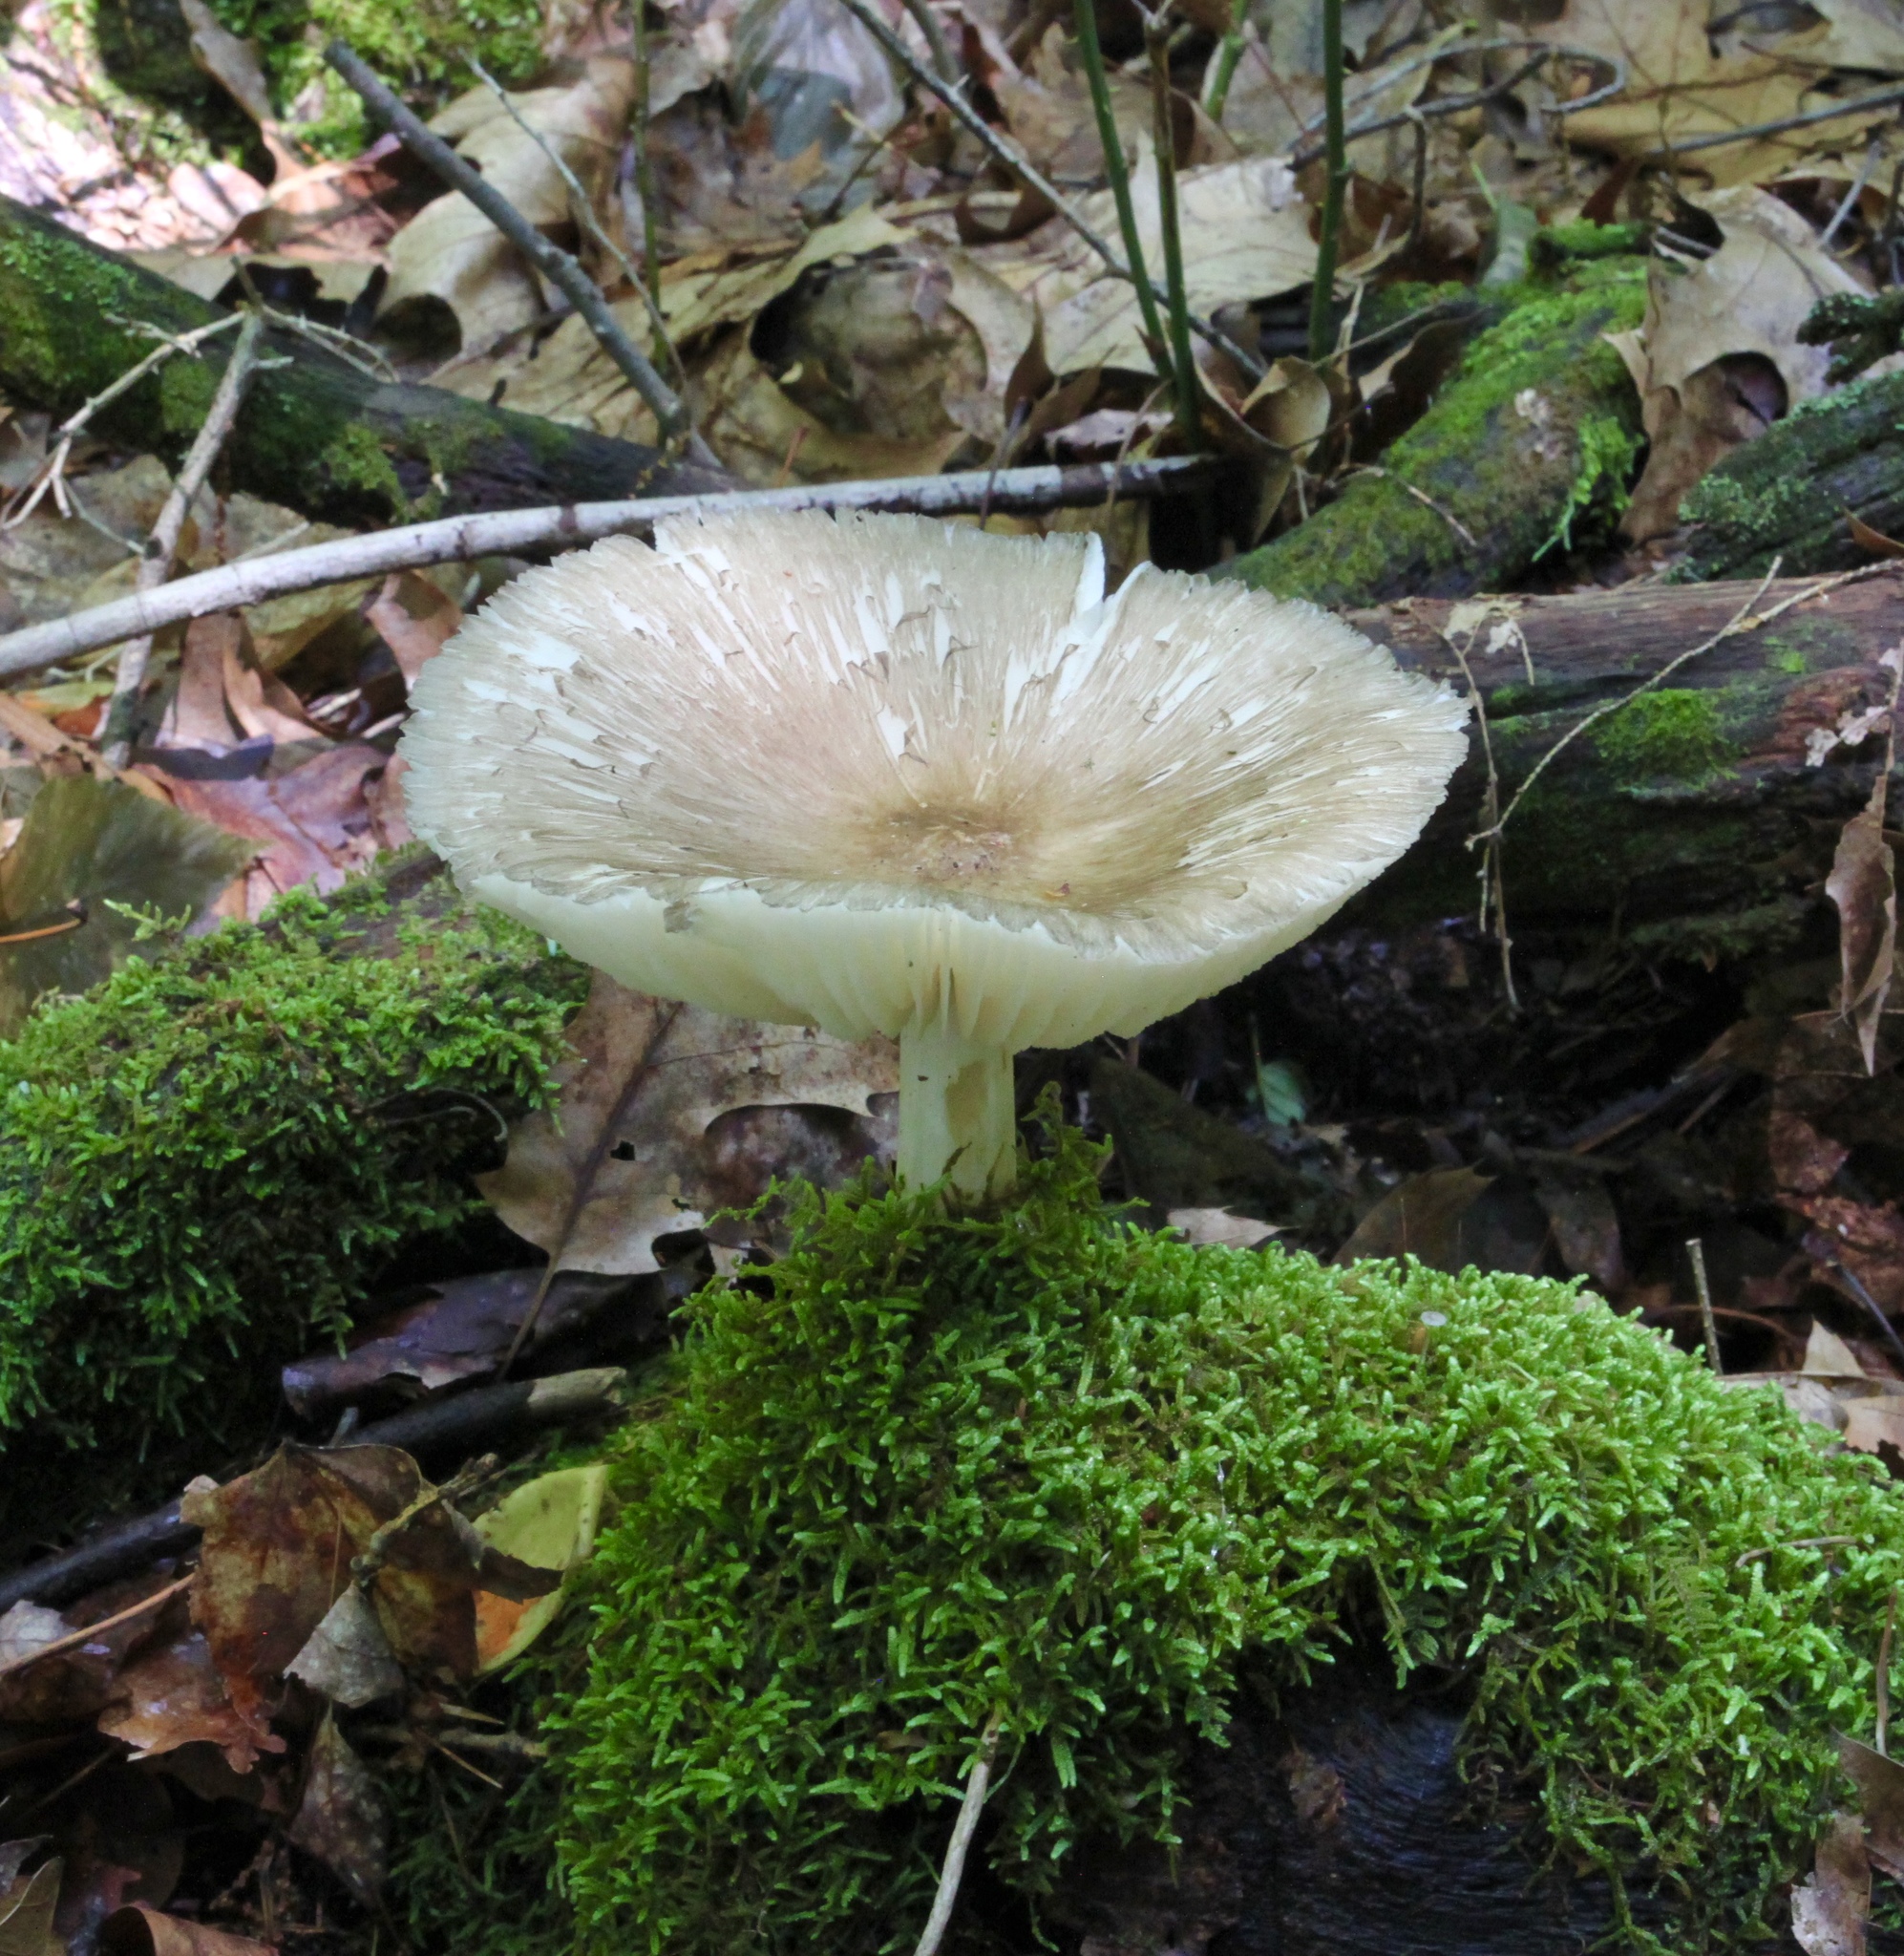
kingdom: Fungi
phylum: Basidiomycota
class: Agaricomycetes
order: Agaricales
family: Tricholomataceae
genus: Megacollybia
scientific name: Megacollybia rodmanii
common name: Eastern american platterful mushroom
